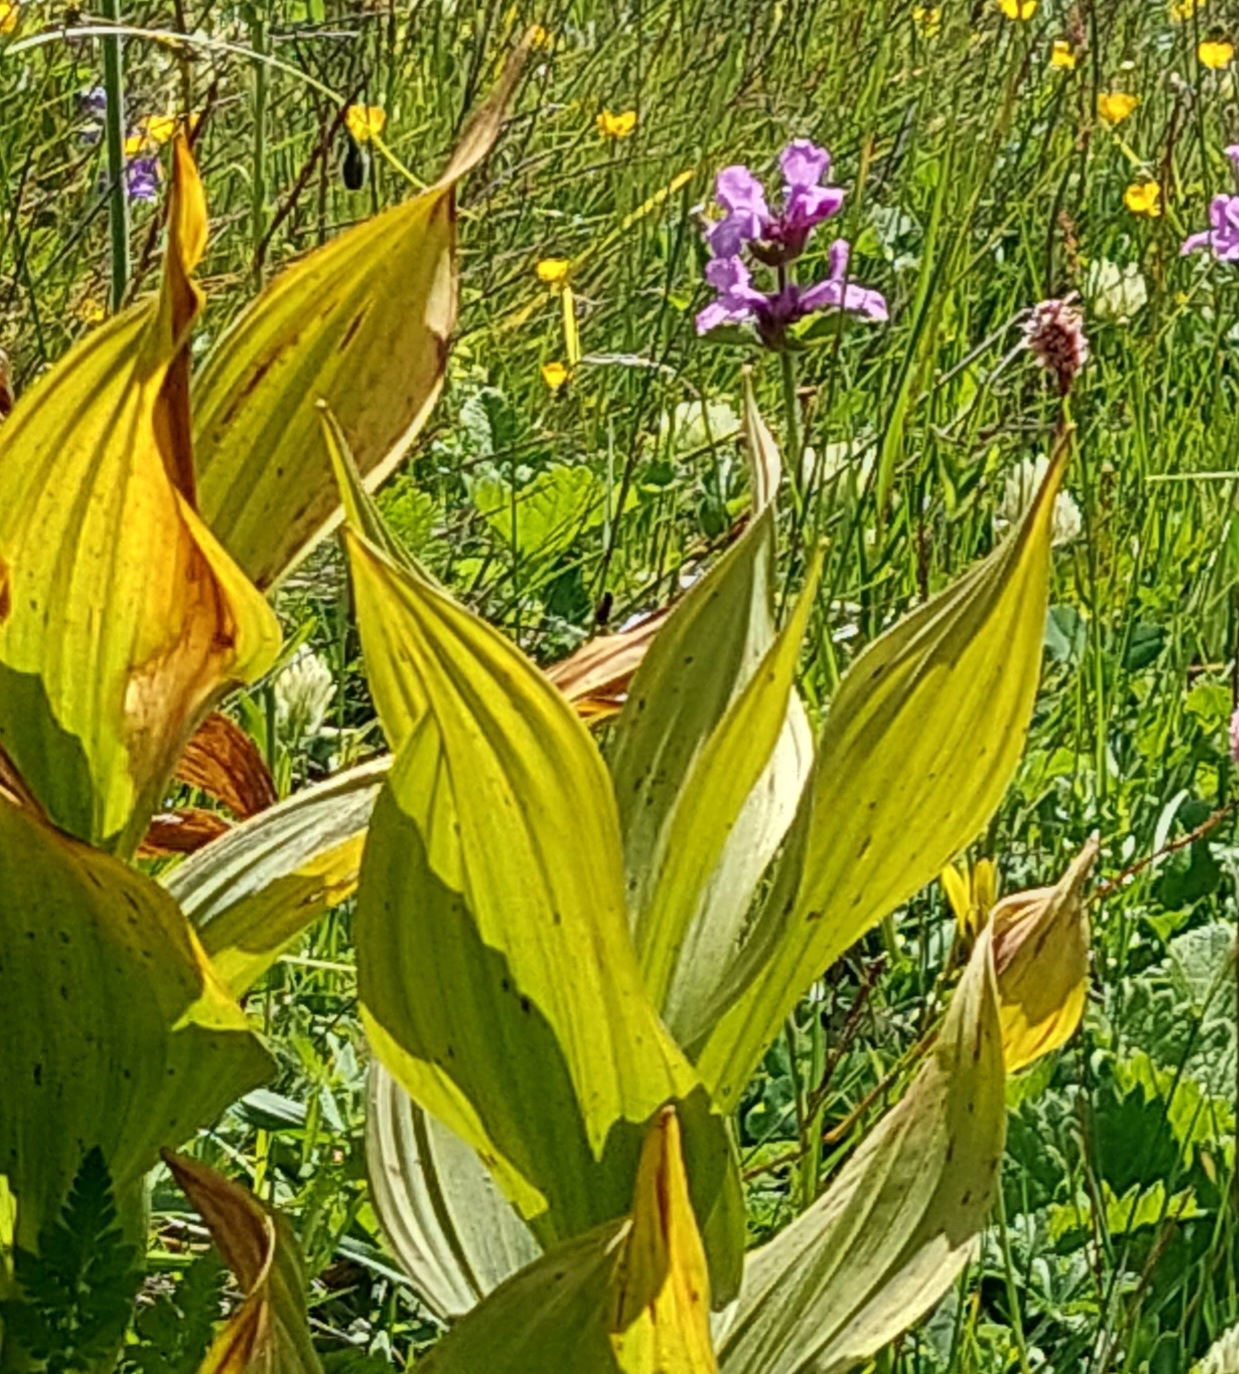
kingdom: Plantae
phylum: Tracheophyta
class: Liliopsida
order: Liliales
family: Melanthiaceae
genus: Veratrum
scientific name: Veratrum lobelianum
